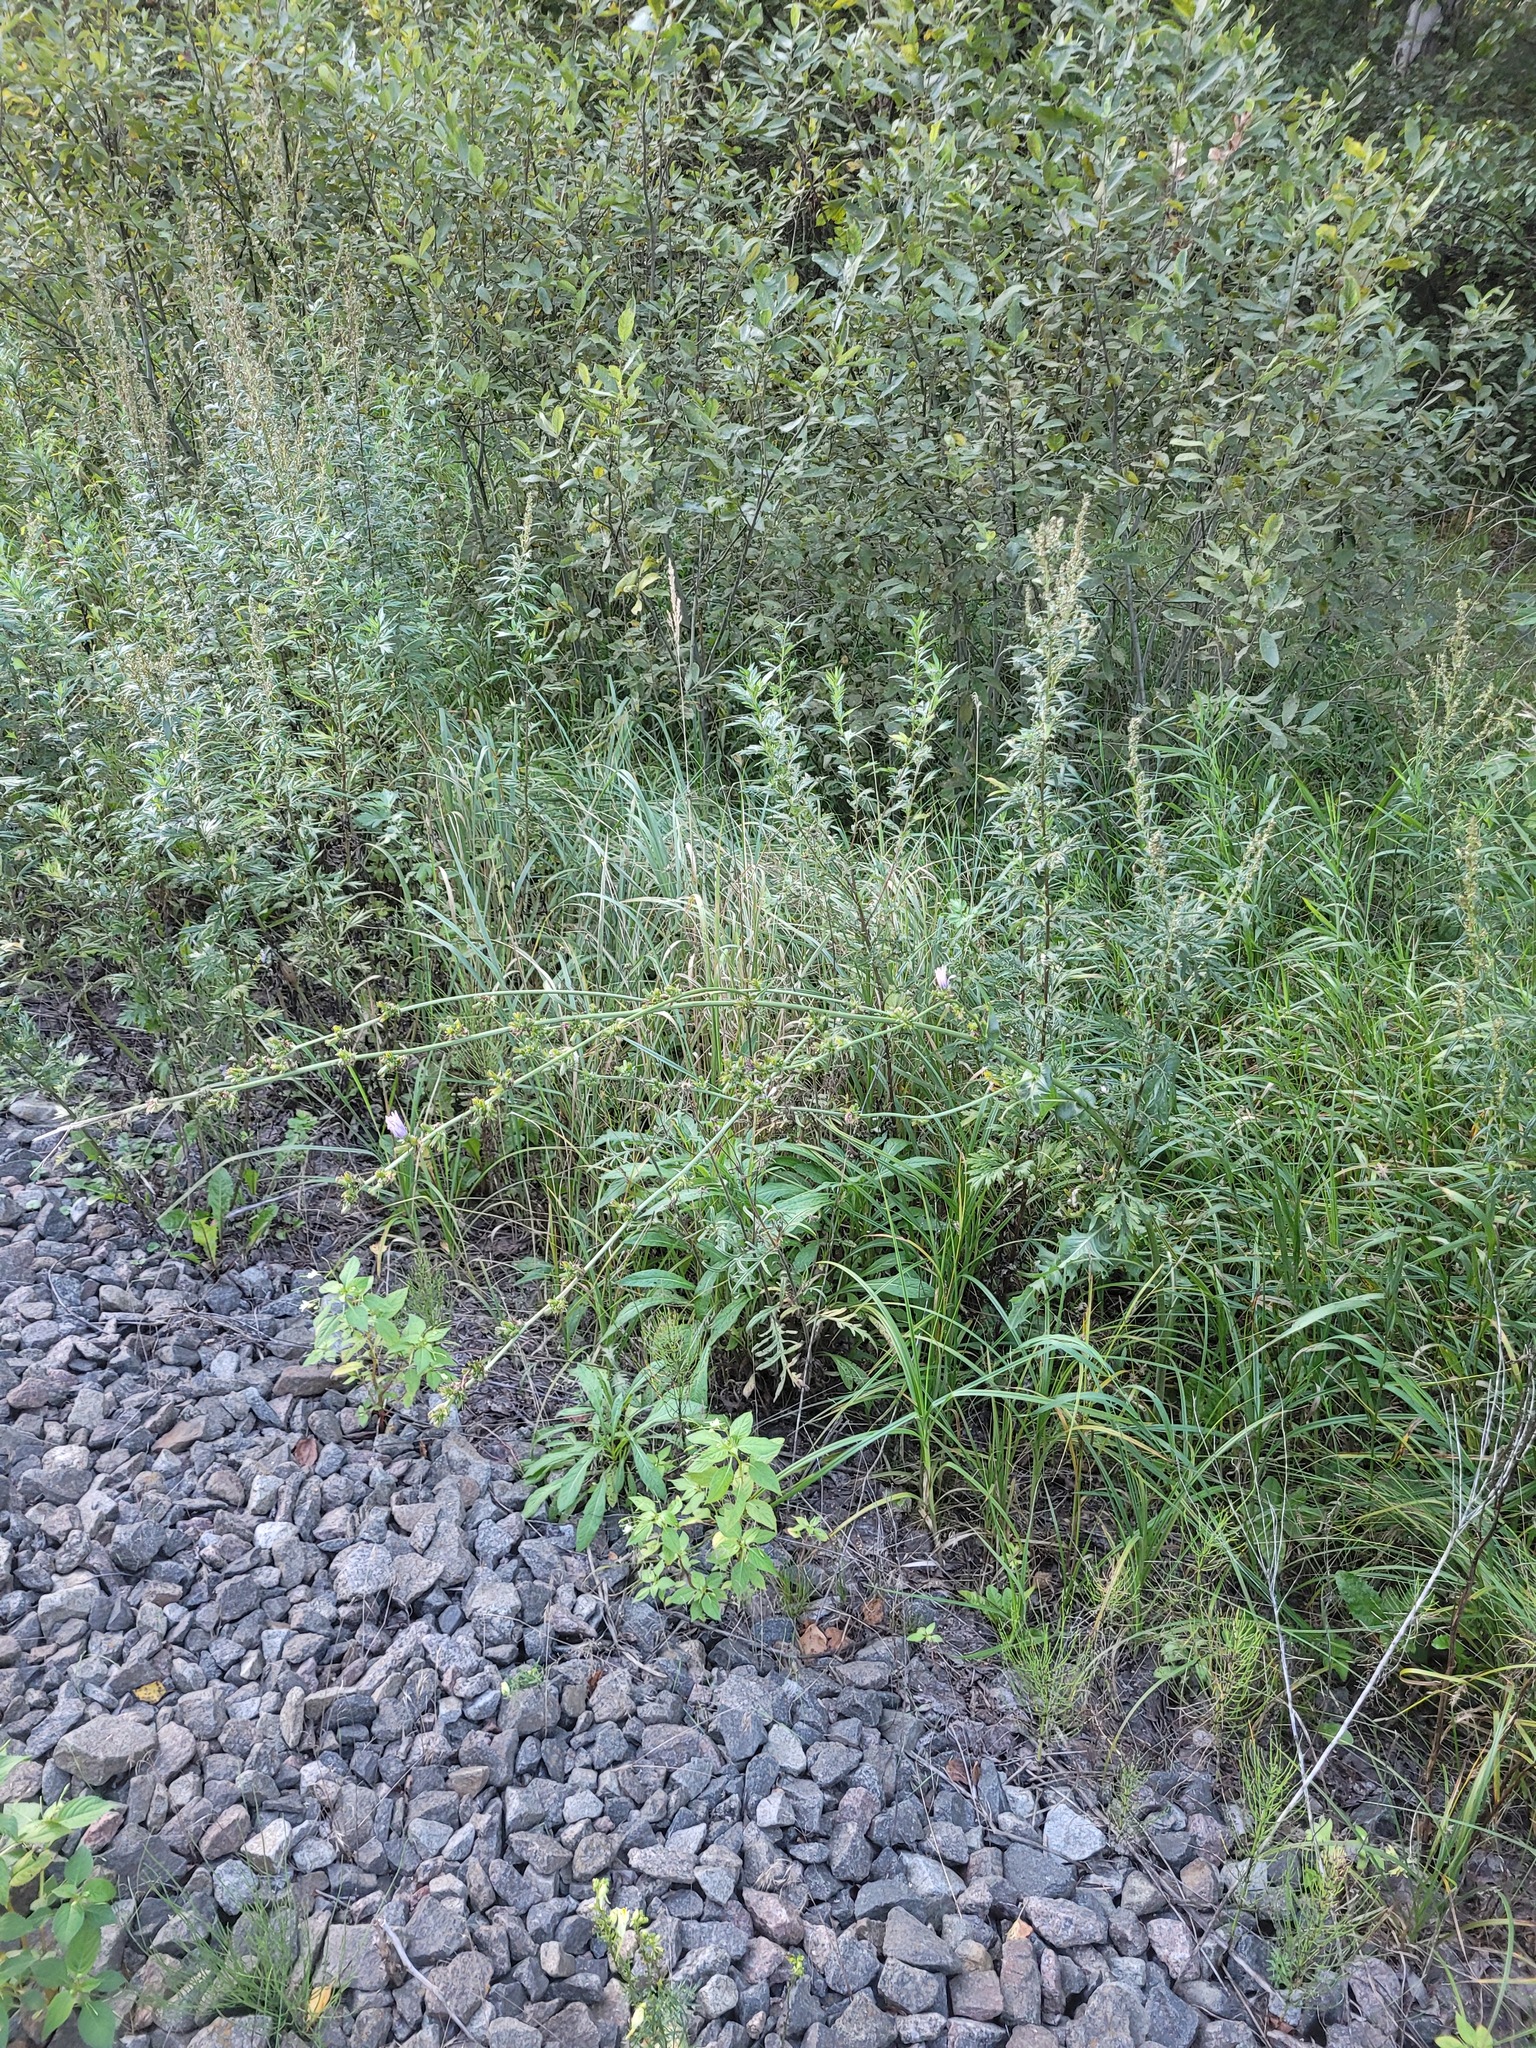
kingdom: Plantae
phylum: Tracheophyta
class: Magnoliopsida
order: Asterales
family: Asteraceae
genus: Cichorium
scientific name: Cichorium intybus
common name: Chicory
